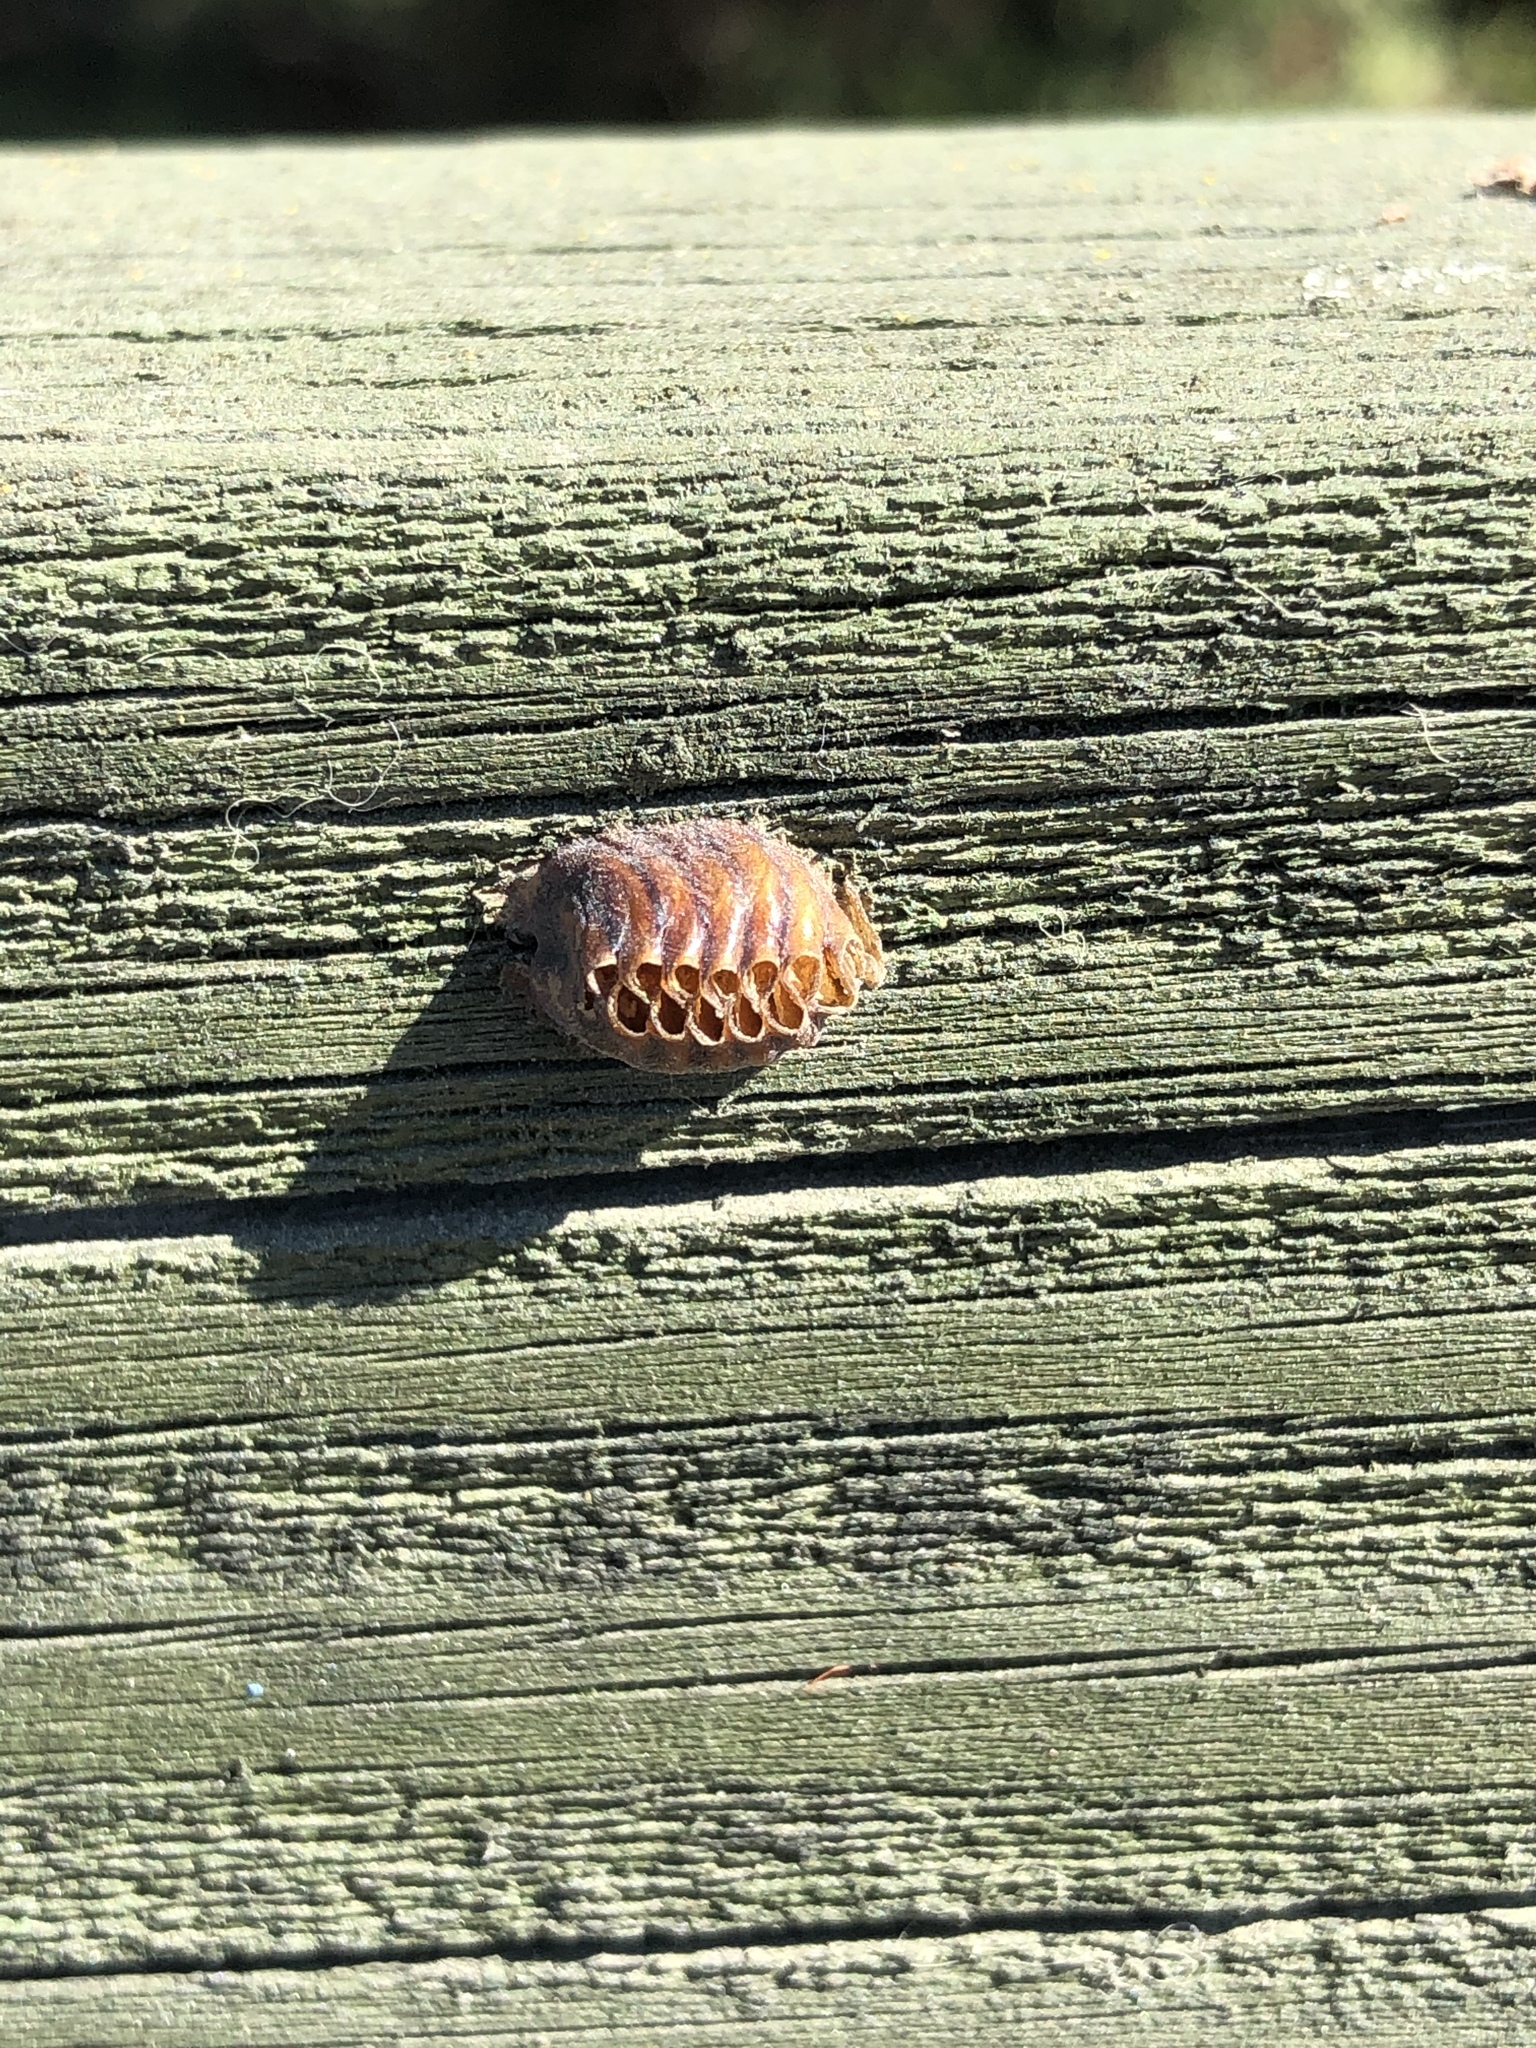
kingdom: Animalia
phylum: Arthropoda
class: Insecta
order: Mantodea
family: Mantidae
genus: Orthodera
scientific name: Orthodera novaezealandiae
